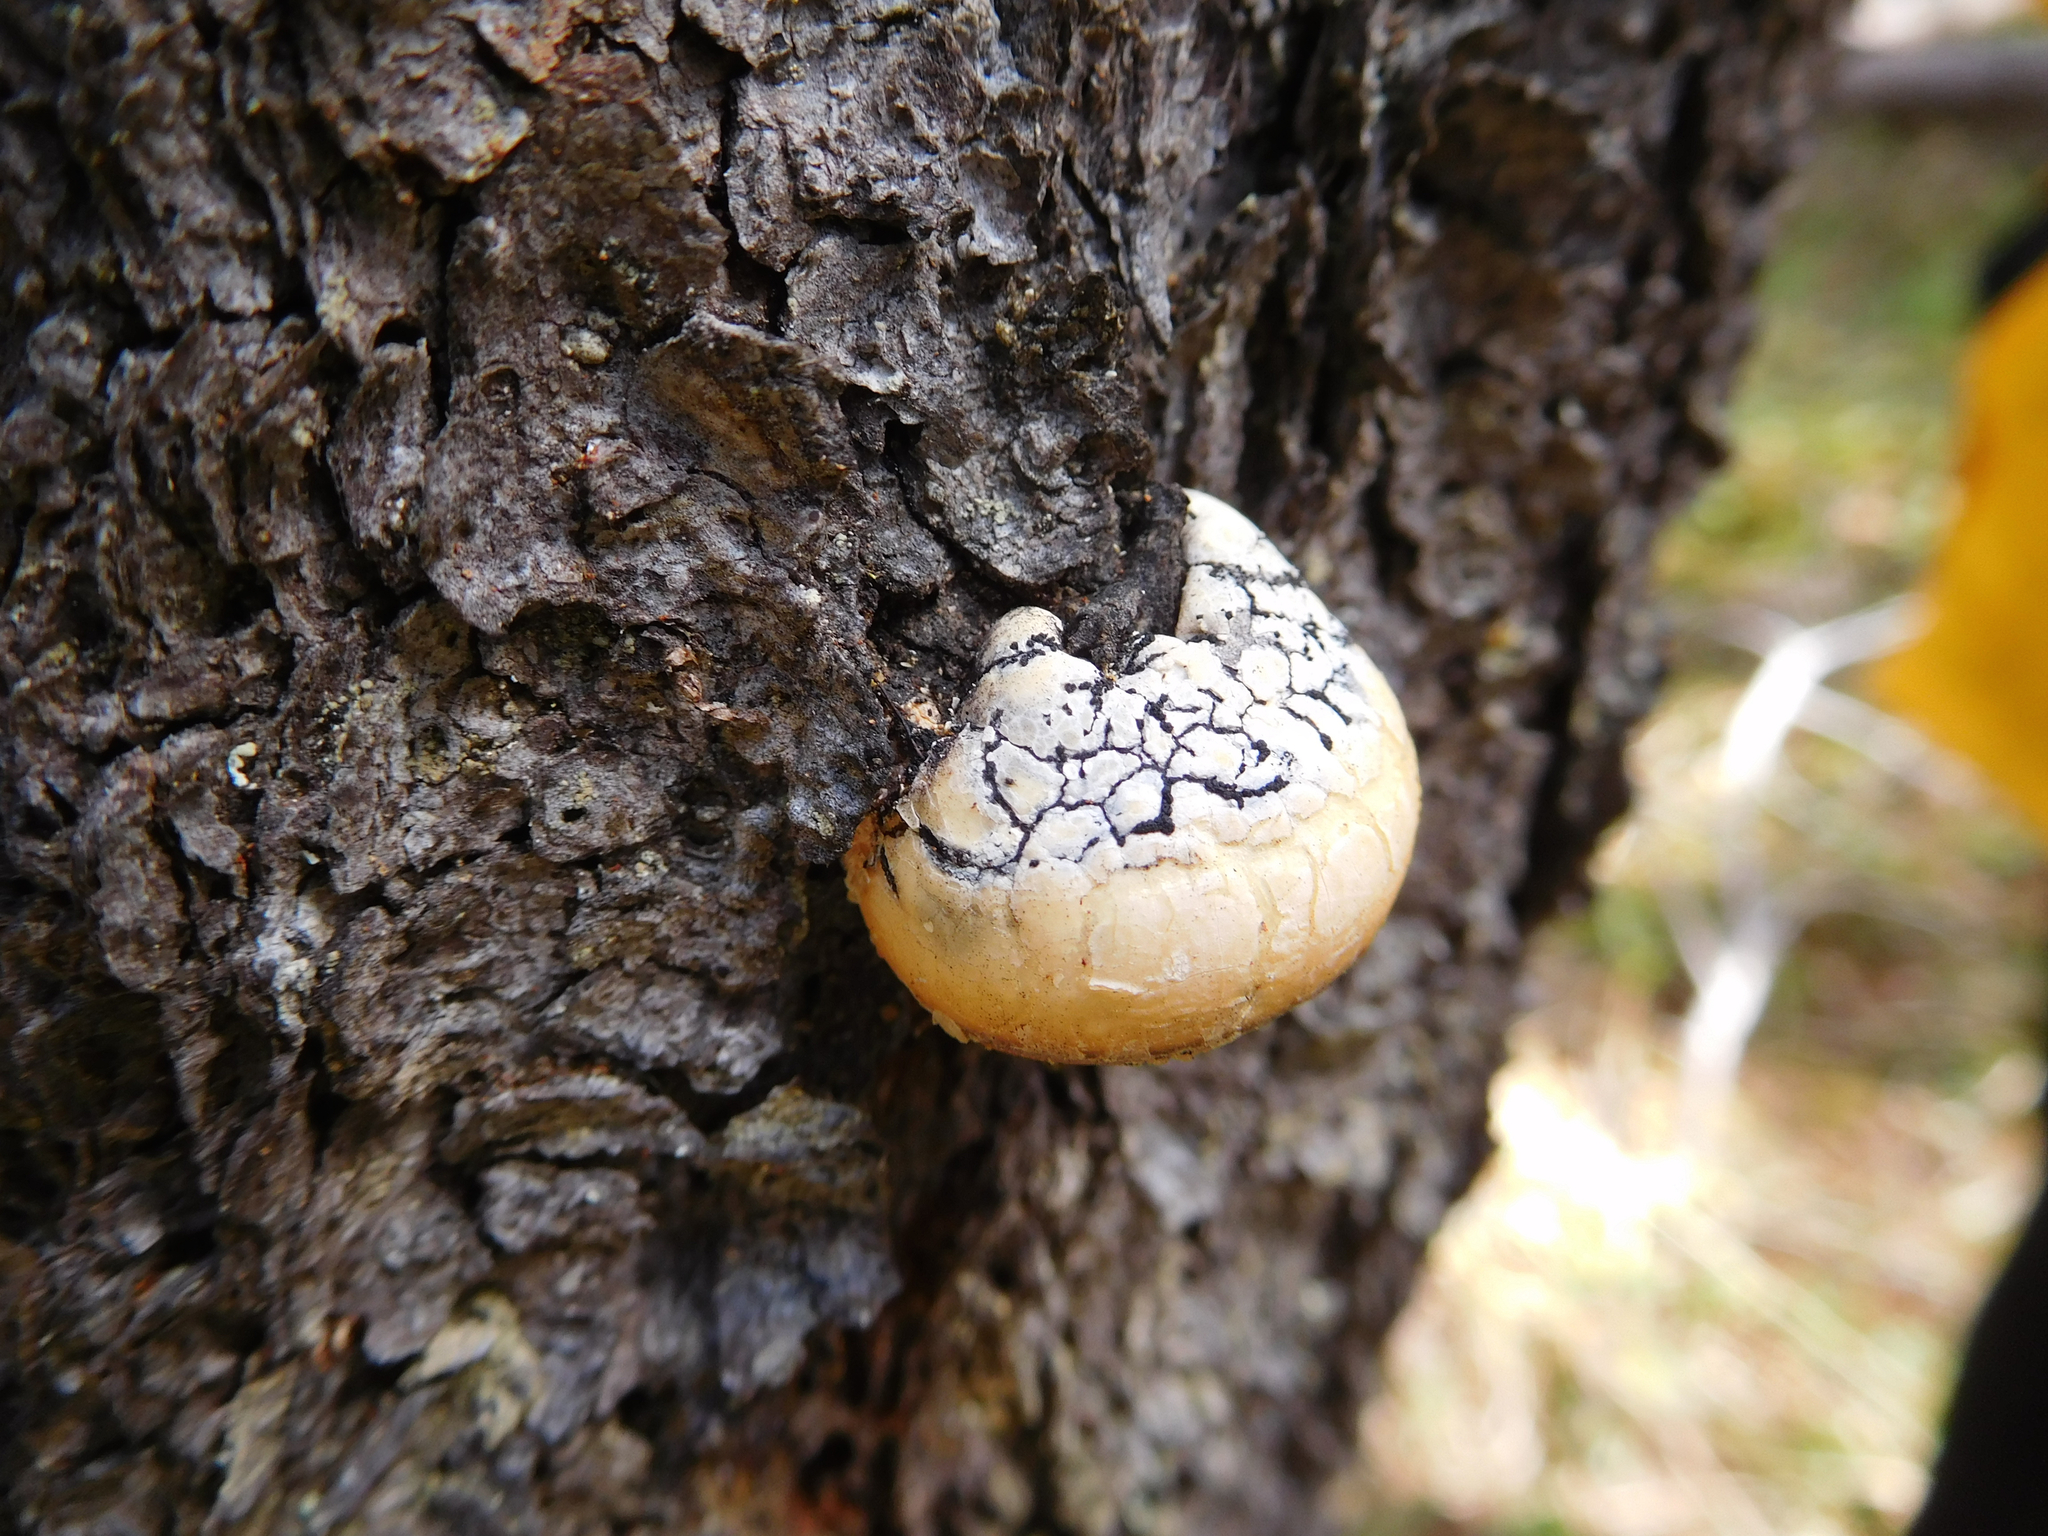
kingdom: Fungi
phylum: Basidiomycota
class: Agaricomycetes
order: Polyporales
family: Polyporaceae
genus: Cryptoporus
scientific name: Cryptoporus volvatus
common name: Veiled polypore
